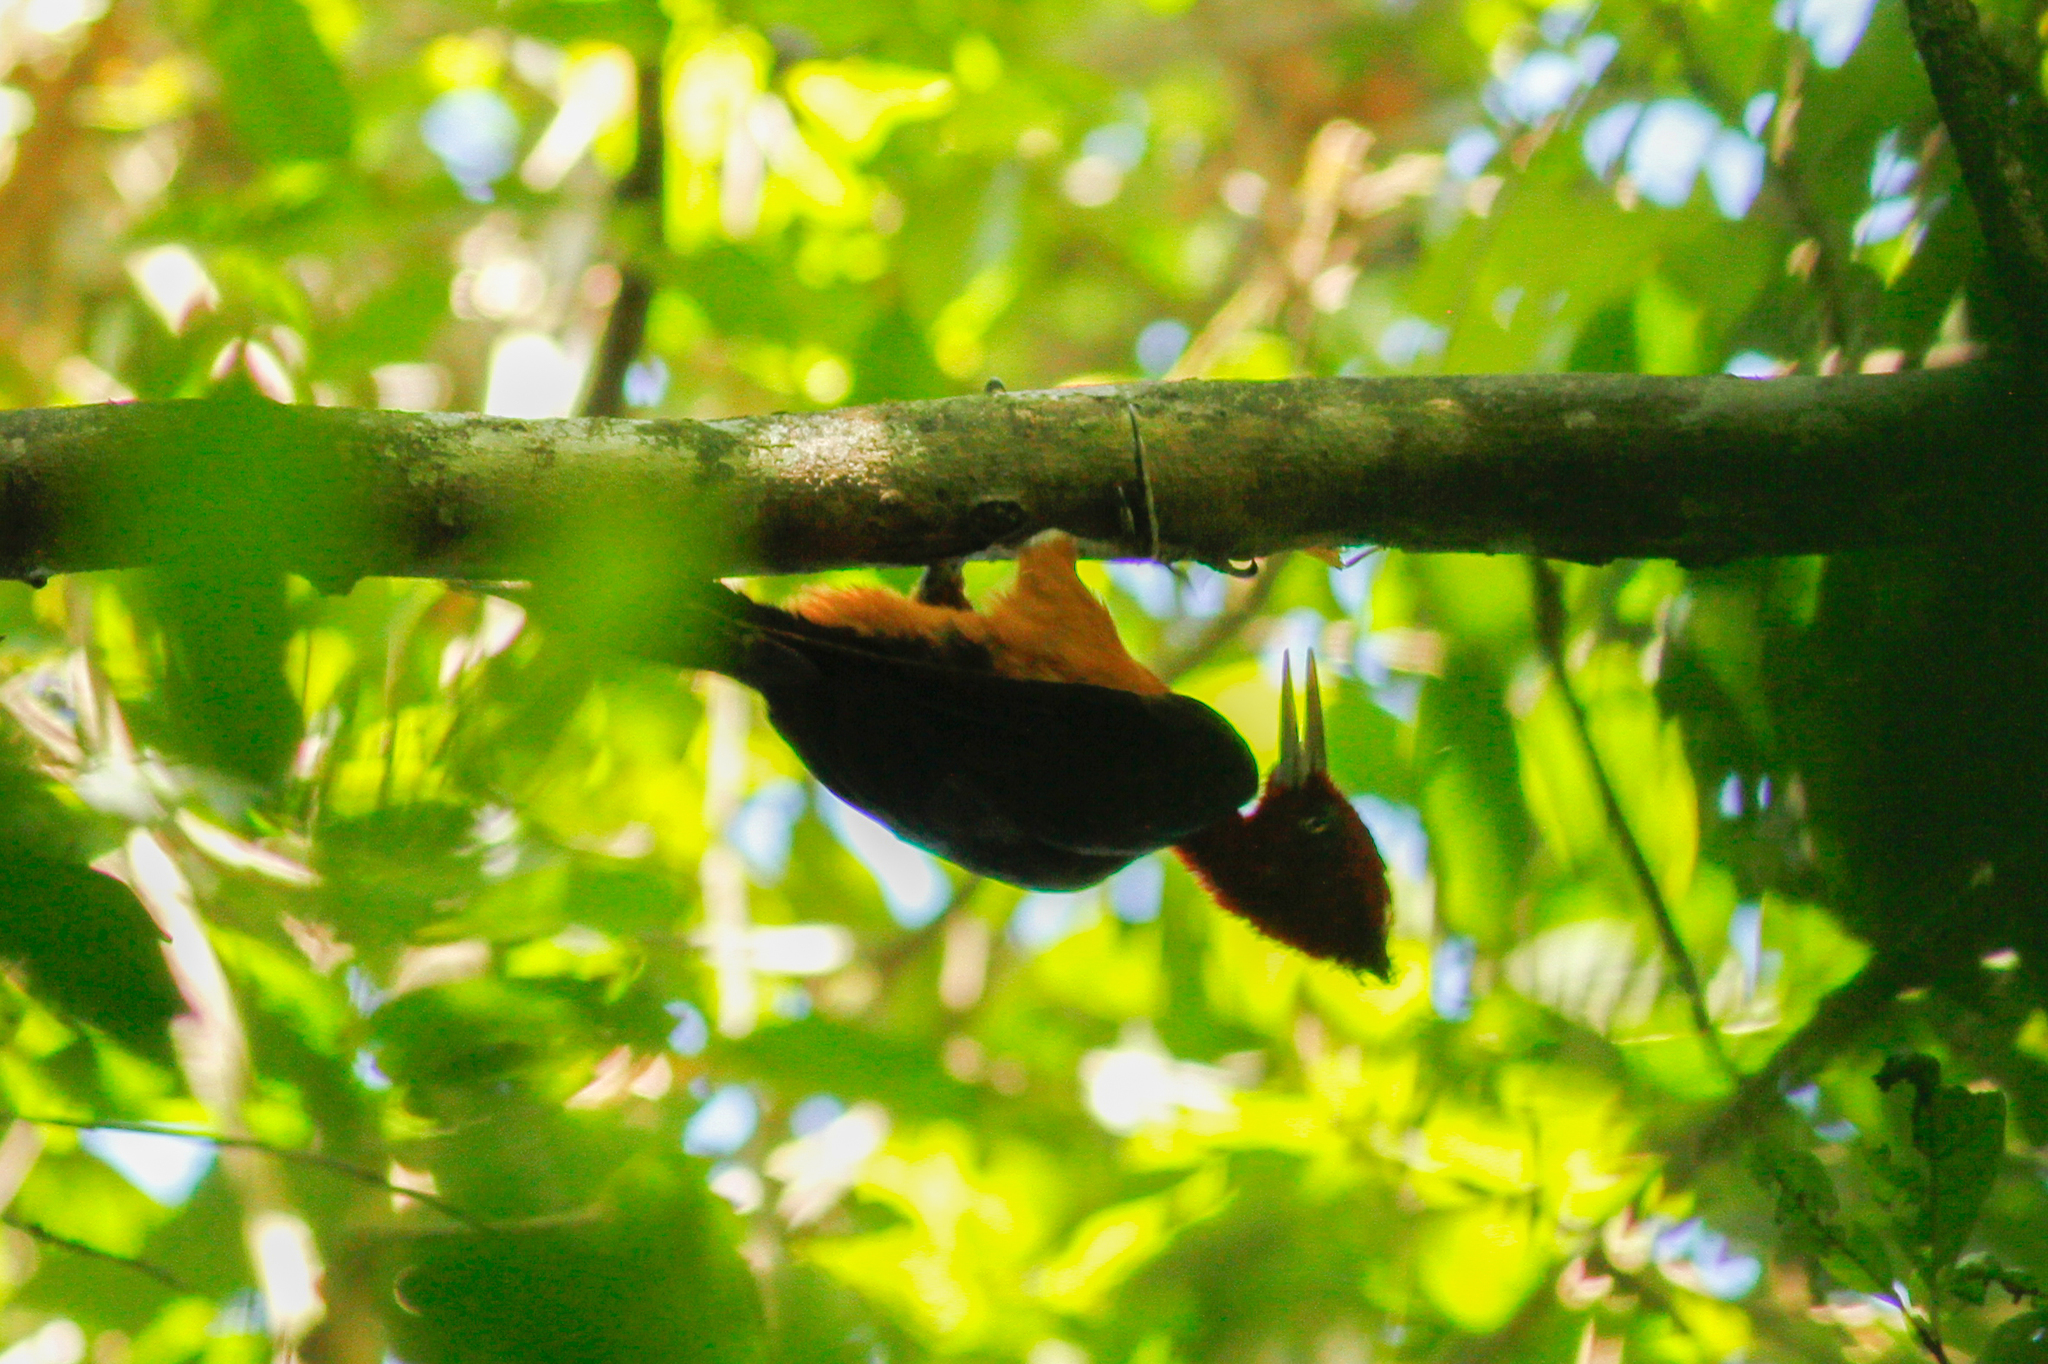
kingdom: Animalia
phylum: Chordata
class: Aves
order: Piciformes
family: Picidae
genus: Campephilus
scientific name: Campephilus rubricollis
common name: Red-necked woodpecker
